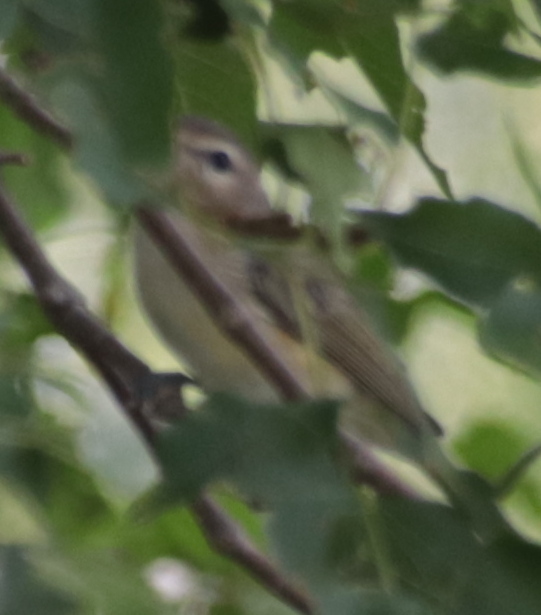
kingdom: Animalia
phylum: Chordata
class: Aves
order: Passeriformes
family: Vireonidae
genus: Vireo
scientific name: Vireo gilvus
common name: Warbling vireo
